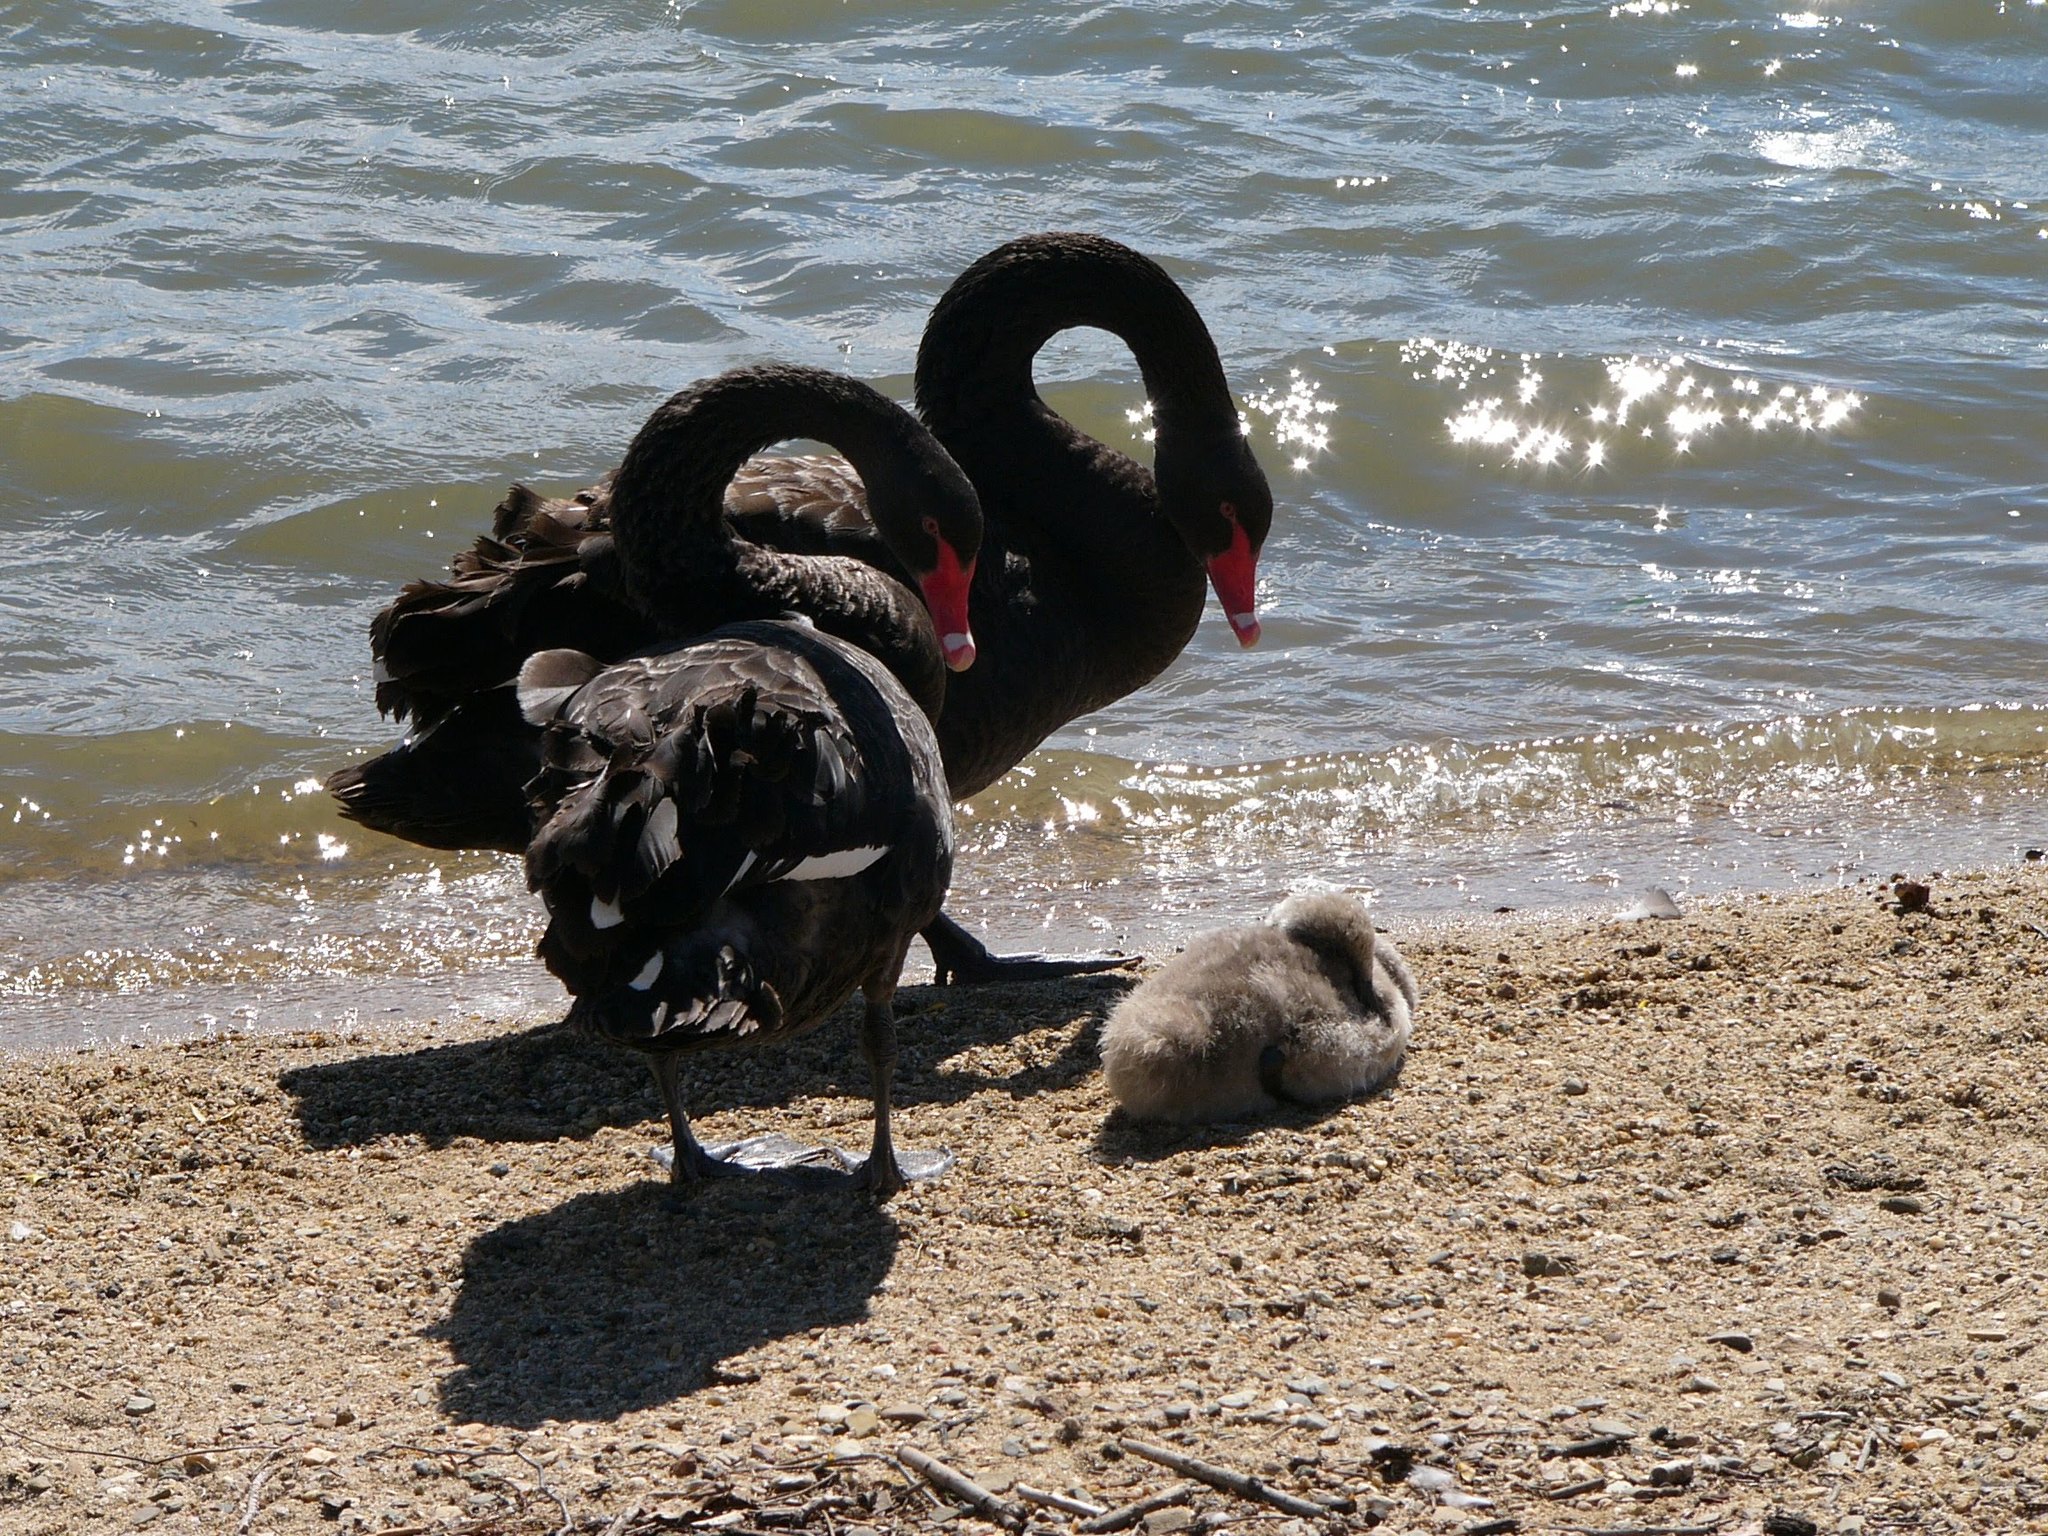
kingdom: Animalia
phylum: Chordata
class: Aves
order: Anseriformes
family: Anatidae
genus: Cygnus
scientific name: Cygnus atratus
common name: Black swan
